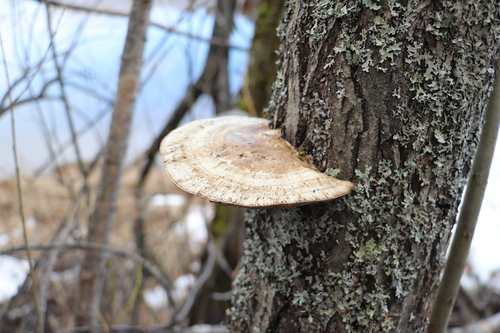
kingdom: Fungi
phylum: Basidiomycota
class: Agaricomycetes
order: Polyporales
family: Polyporaceae
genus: Daedaleopsis
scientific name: Daedaleopsis confragosa
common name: Blushing bracket
